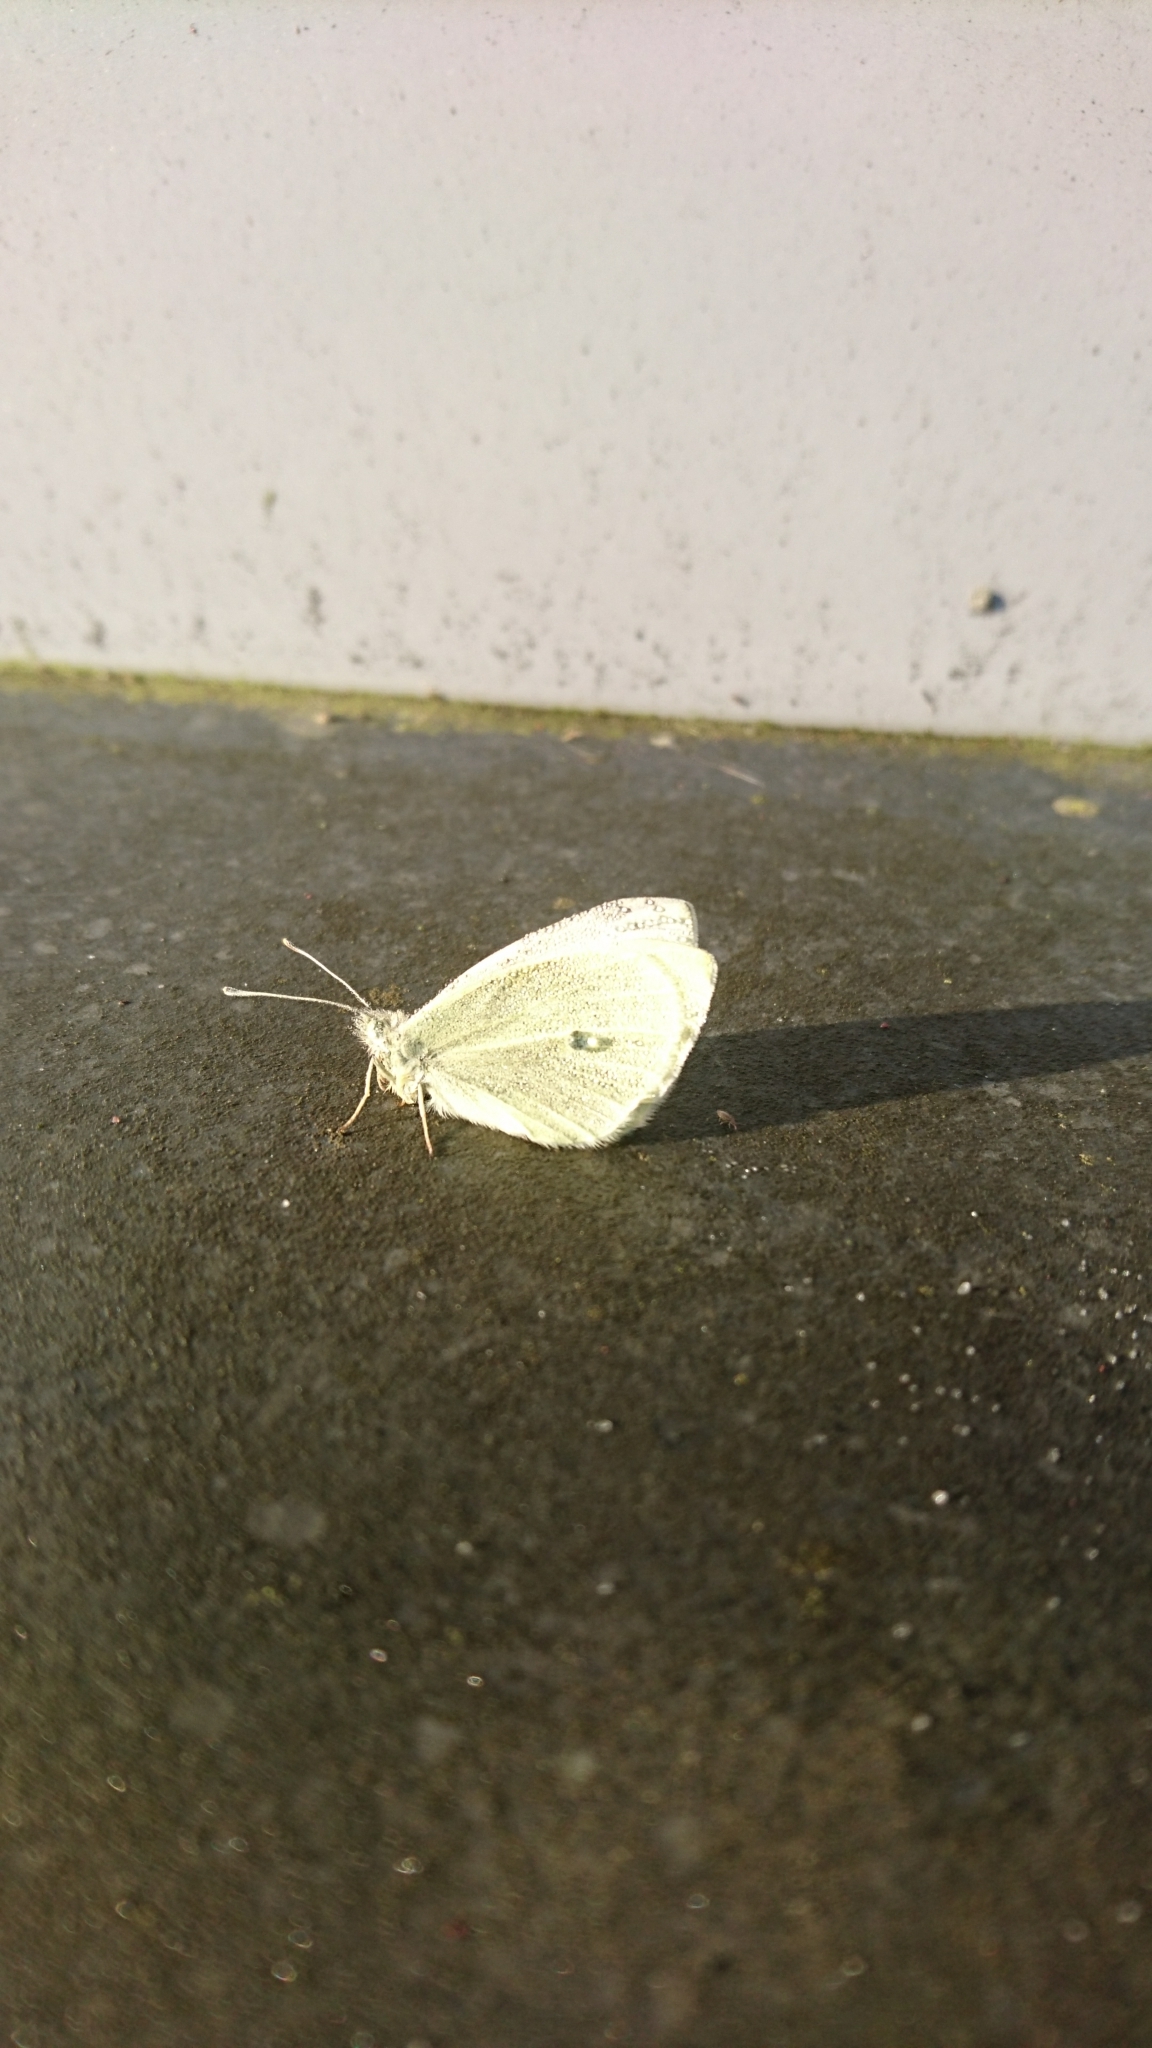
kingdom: Animalia
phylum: Arthropoda
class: Insecta
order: Lepidoptera
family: Pieridae
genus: Pieris
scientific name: Pieris rapae
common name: Small white
